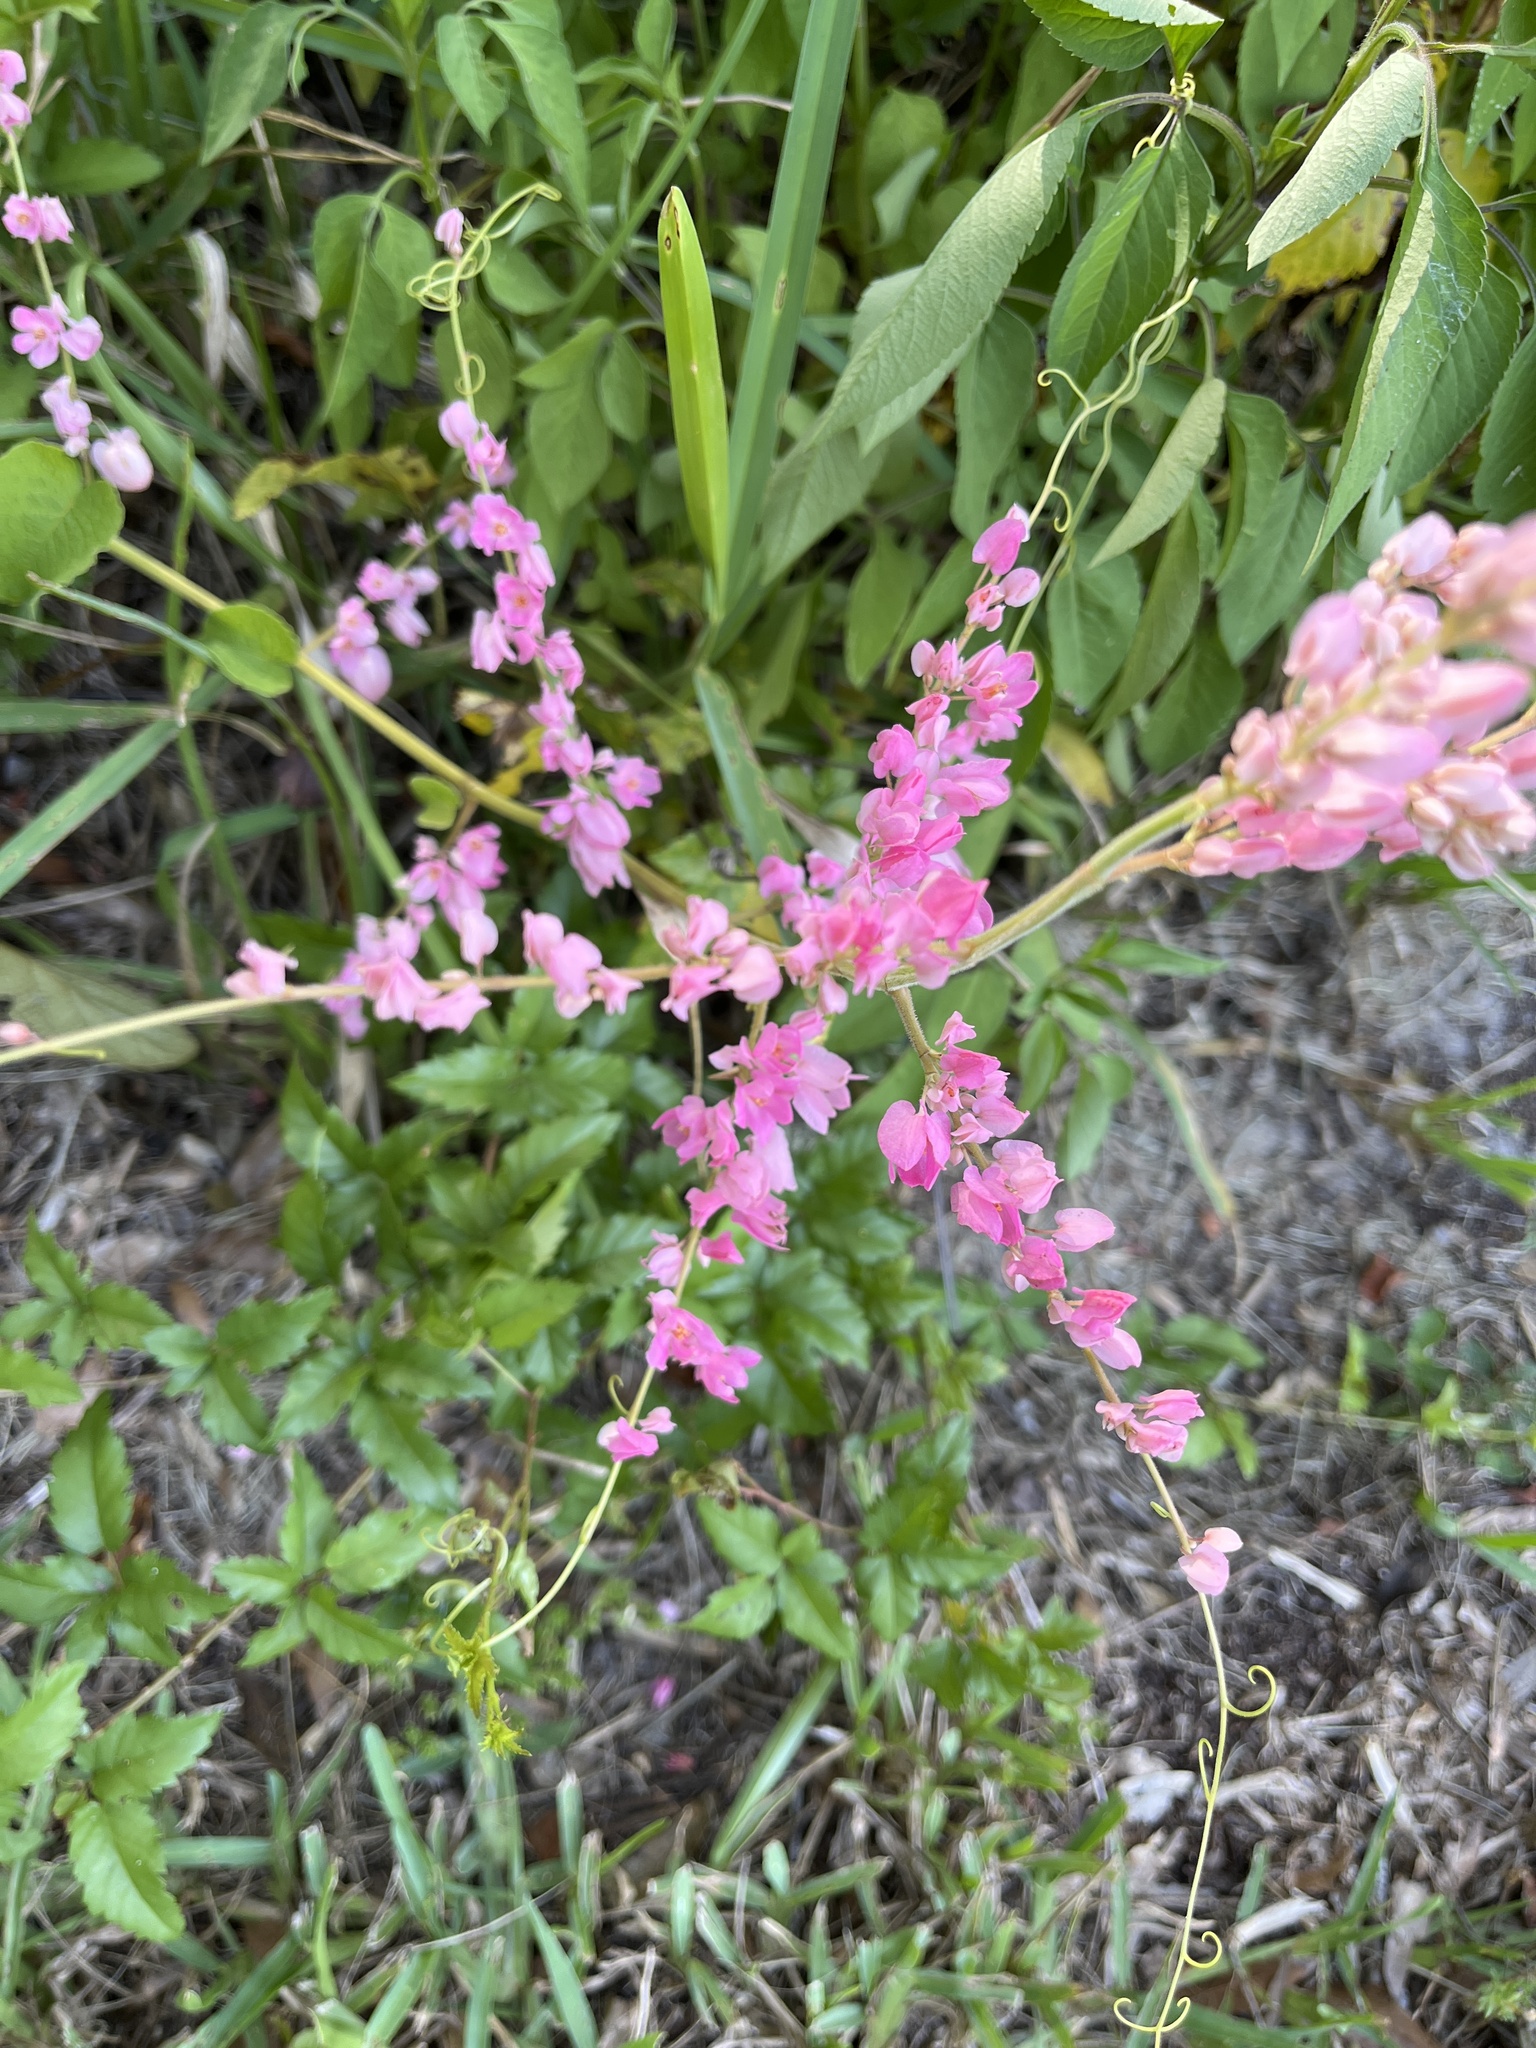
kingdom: Plantae
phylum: Tracheophyta
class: Magnoliopsida
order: Caryophyllales
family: Polygonaceae
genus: Antigonon
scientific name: Antigonon leptopus
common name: Coral vine
